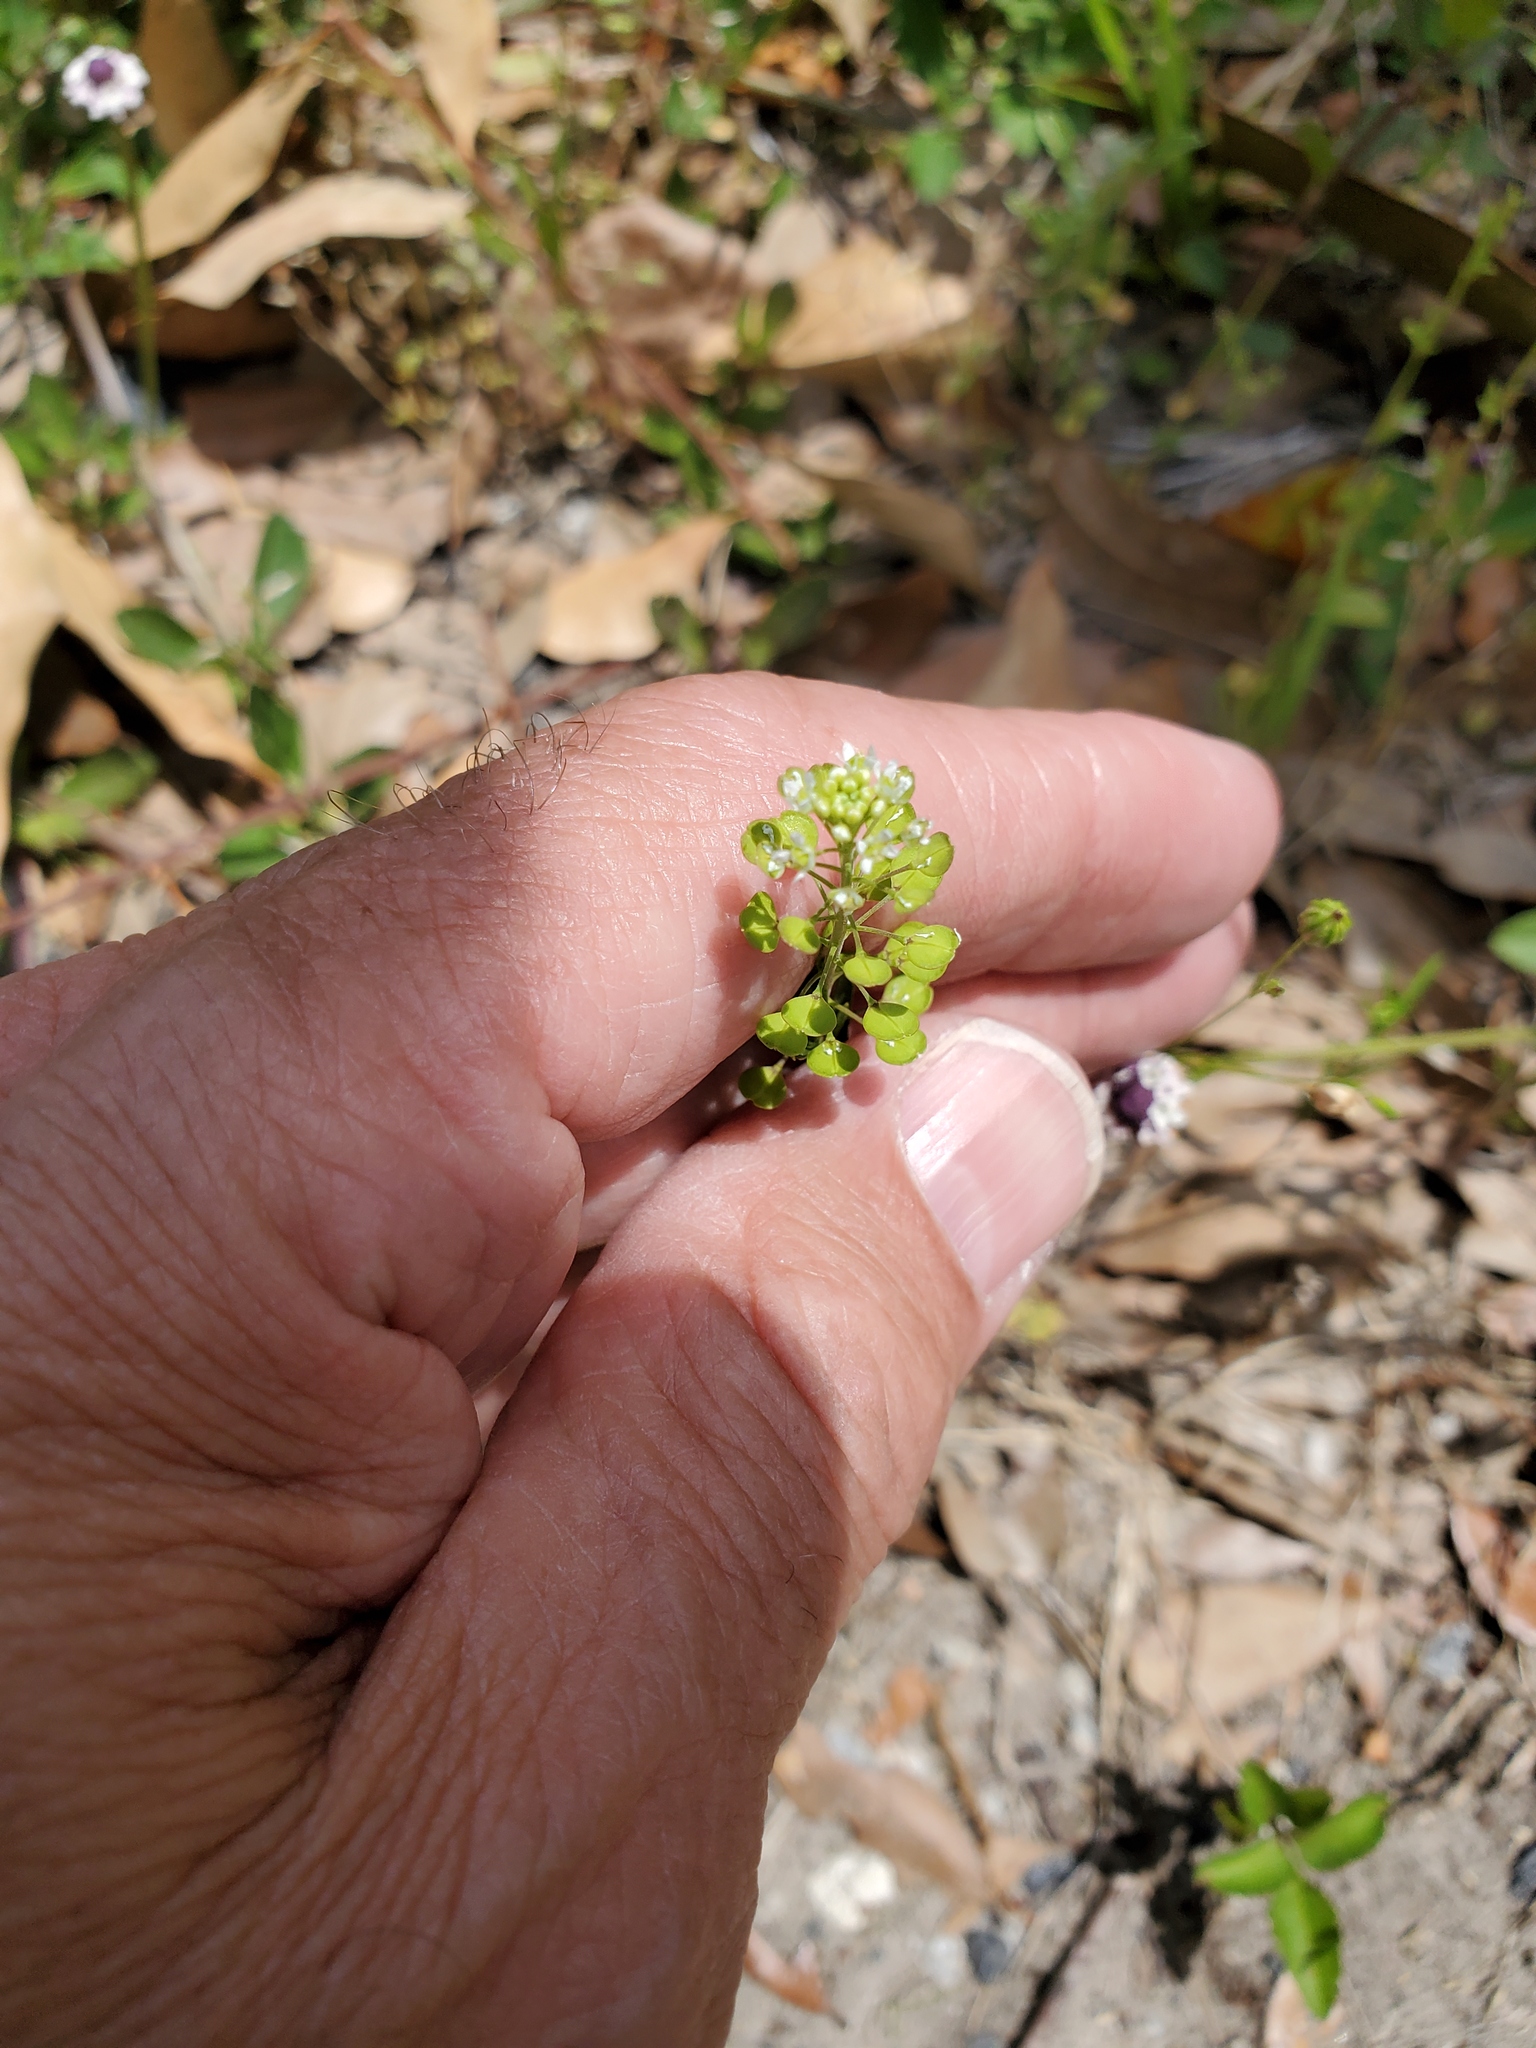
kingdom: Plantae
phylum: Tracheophyta
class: Magnoliopsida
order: Brassicales
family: Brassicaceae
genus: Lepidium
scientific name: Lepidium virginicum
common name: Least pepperwort
